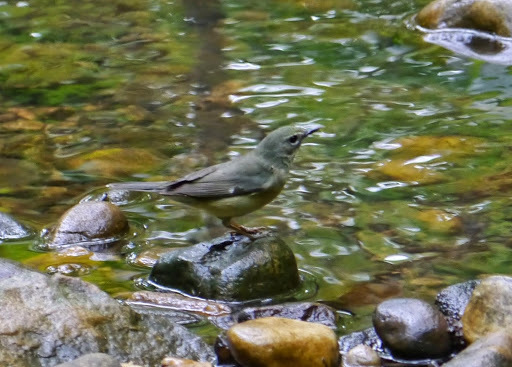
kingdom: Animalia
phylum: Chordata
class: Aves
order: Passeriformes
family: Parulidae
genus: Setophaga
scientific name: Setophaga caerulescens
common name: Black-throated blue warbler
